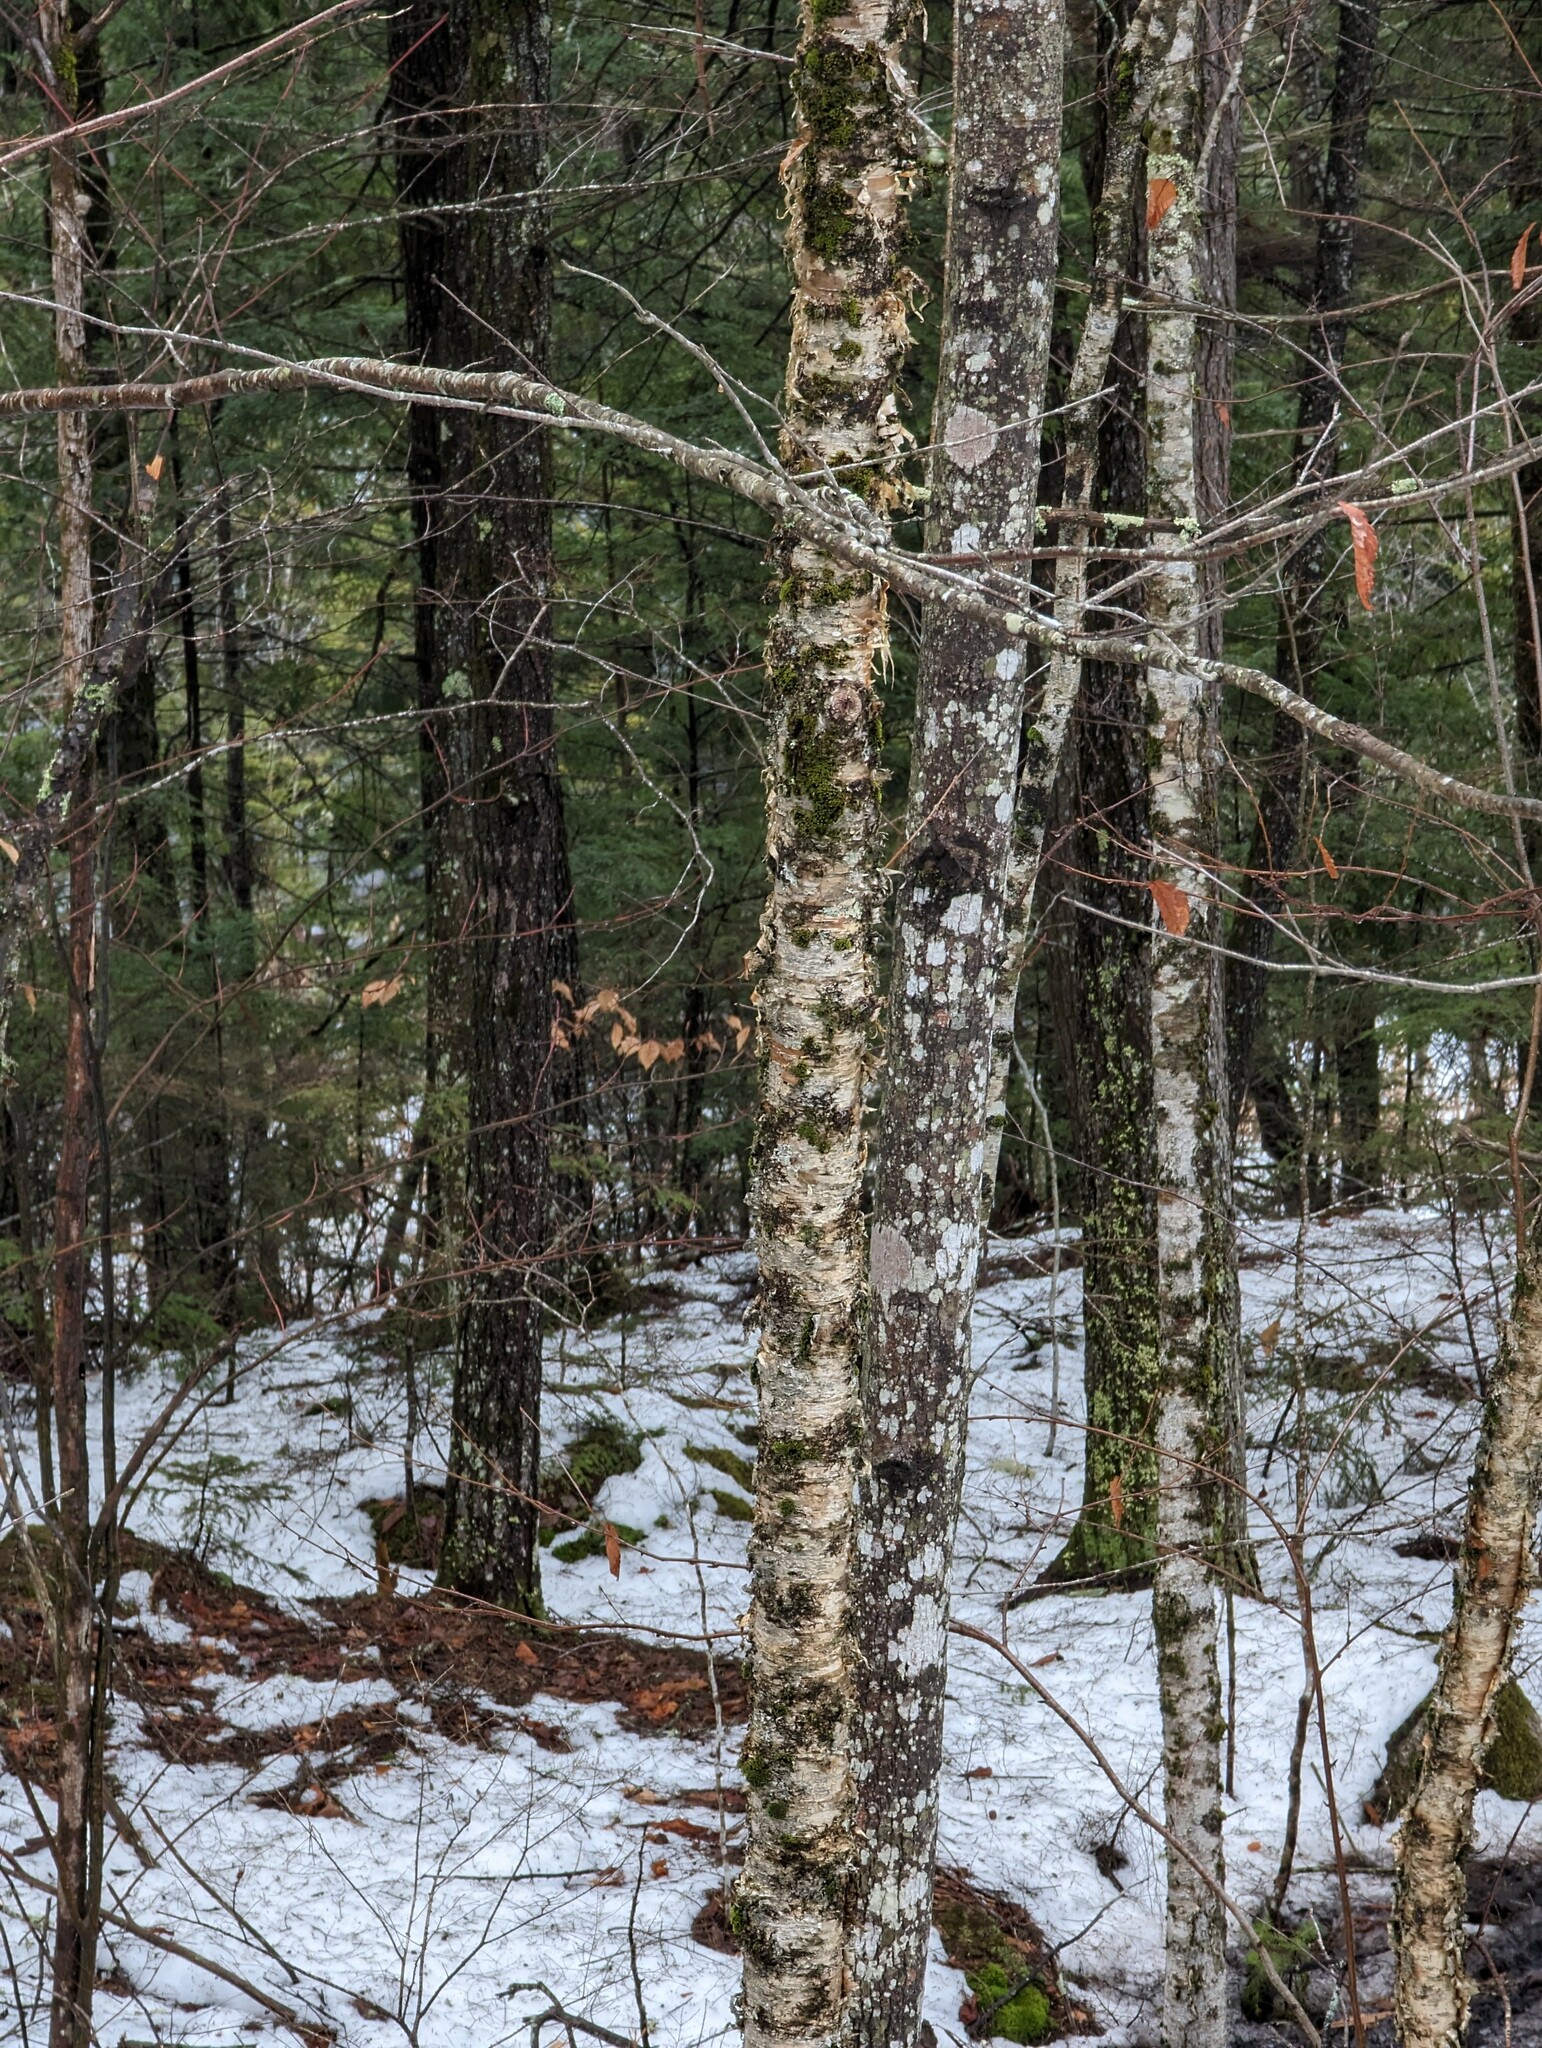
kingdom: Plantae
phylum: Tracheophyta
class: Magnoliopsida
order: Fagales
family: Betulaceae
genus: Betula
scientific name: Betula alleghaniensis
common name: Yellow birch
